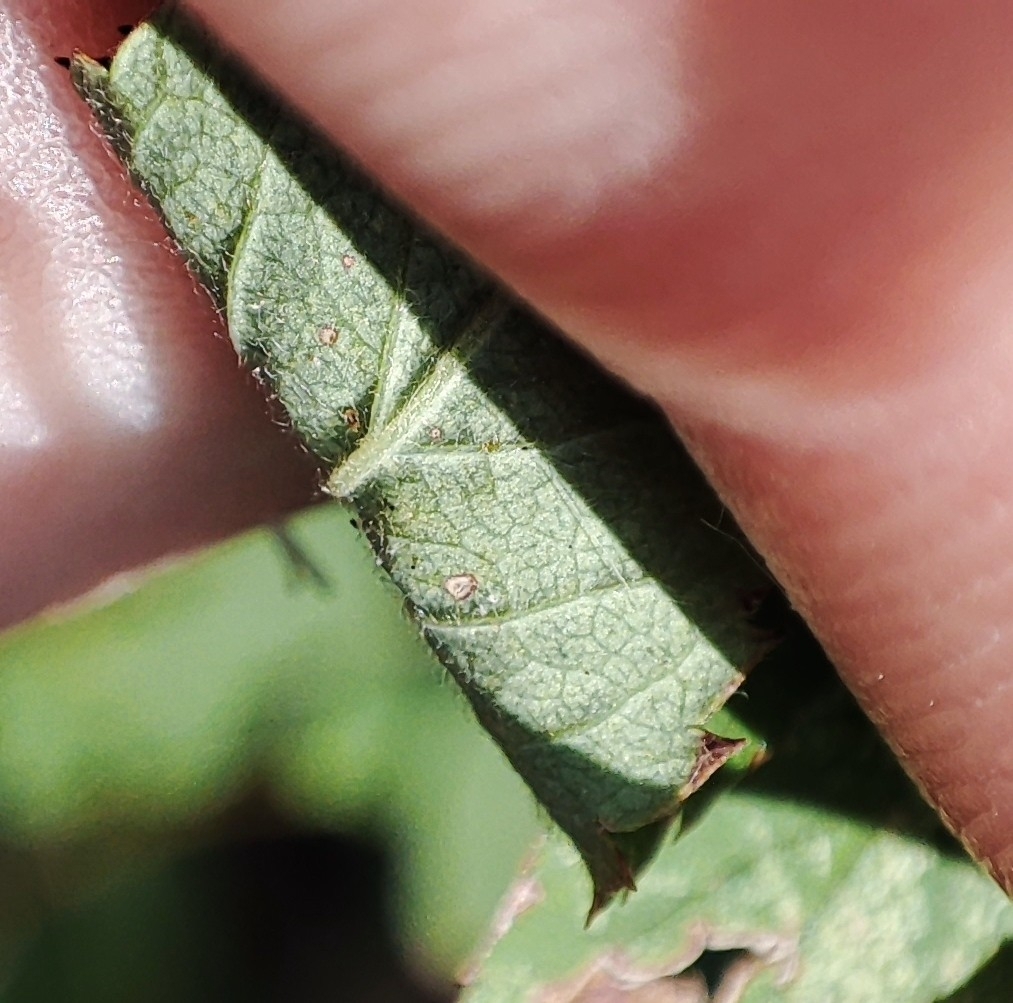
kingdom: Plantae
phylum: Tracheophyta
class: Magnoliopsida
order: Rosales
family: Rosaceae
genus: Rosa
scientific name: Rosa majalis
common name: Cinnamon rose
